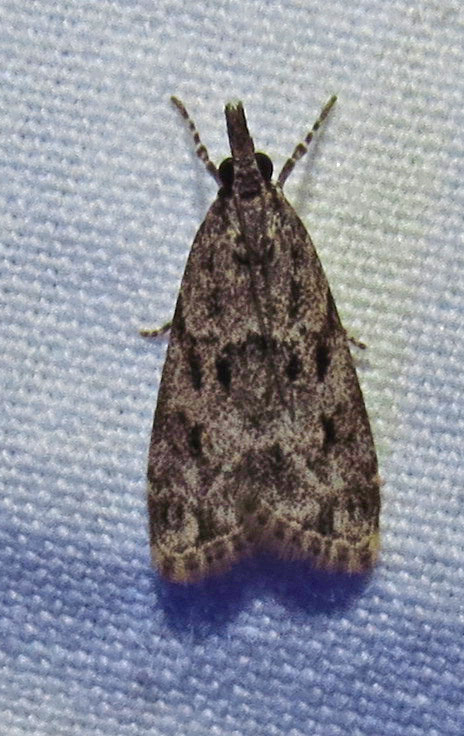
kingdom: Animalia
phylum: Arthropoda
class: Insecta
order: Lepidoptera
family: Crambidae
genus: Eudonia
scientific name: Eudonia heterosalis
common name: Mcdunnough's eudonia
